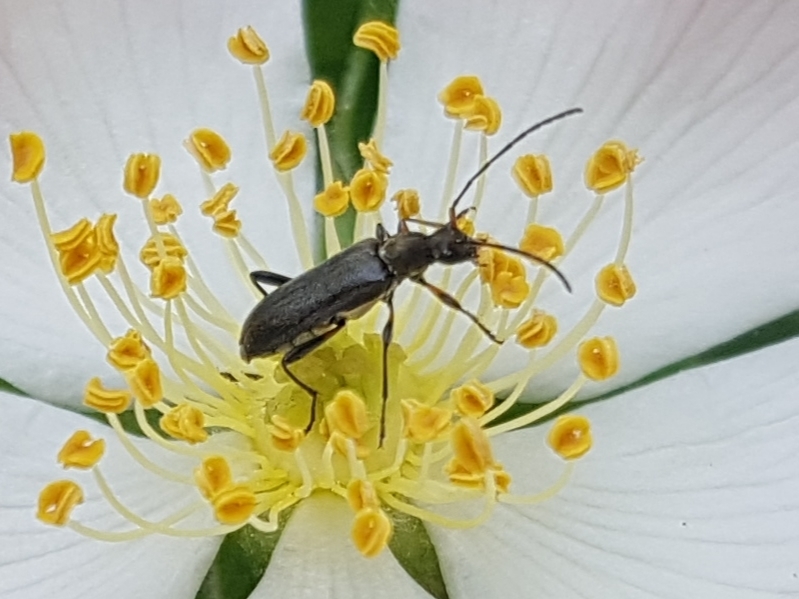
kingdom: Animalia
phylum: Arthropoda
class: Insecta
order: Coleoptera
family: Cerambycidae
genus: Grammoptera
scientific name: Grammoptera ruficornis
